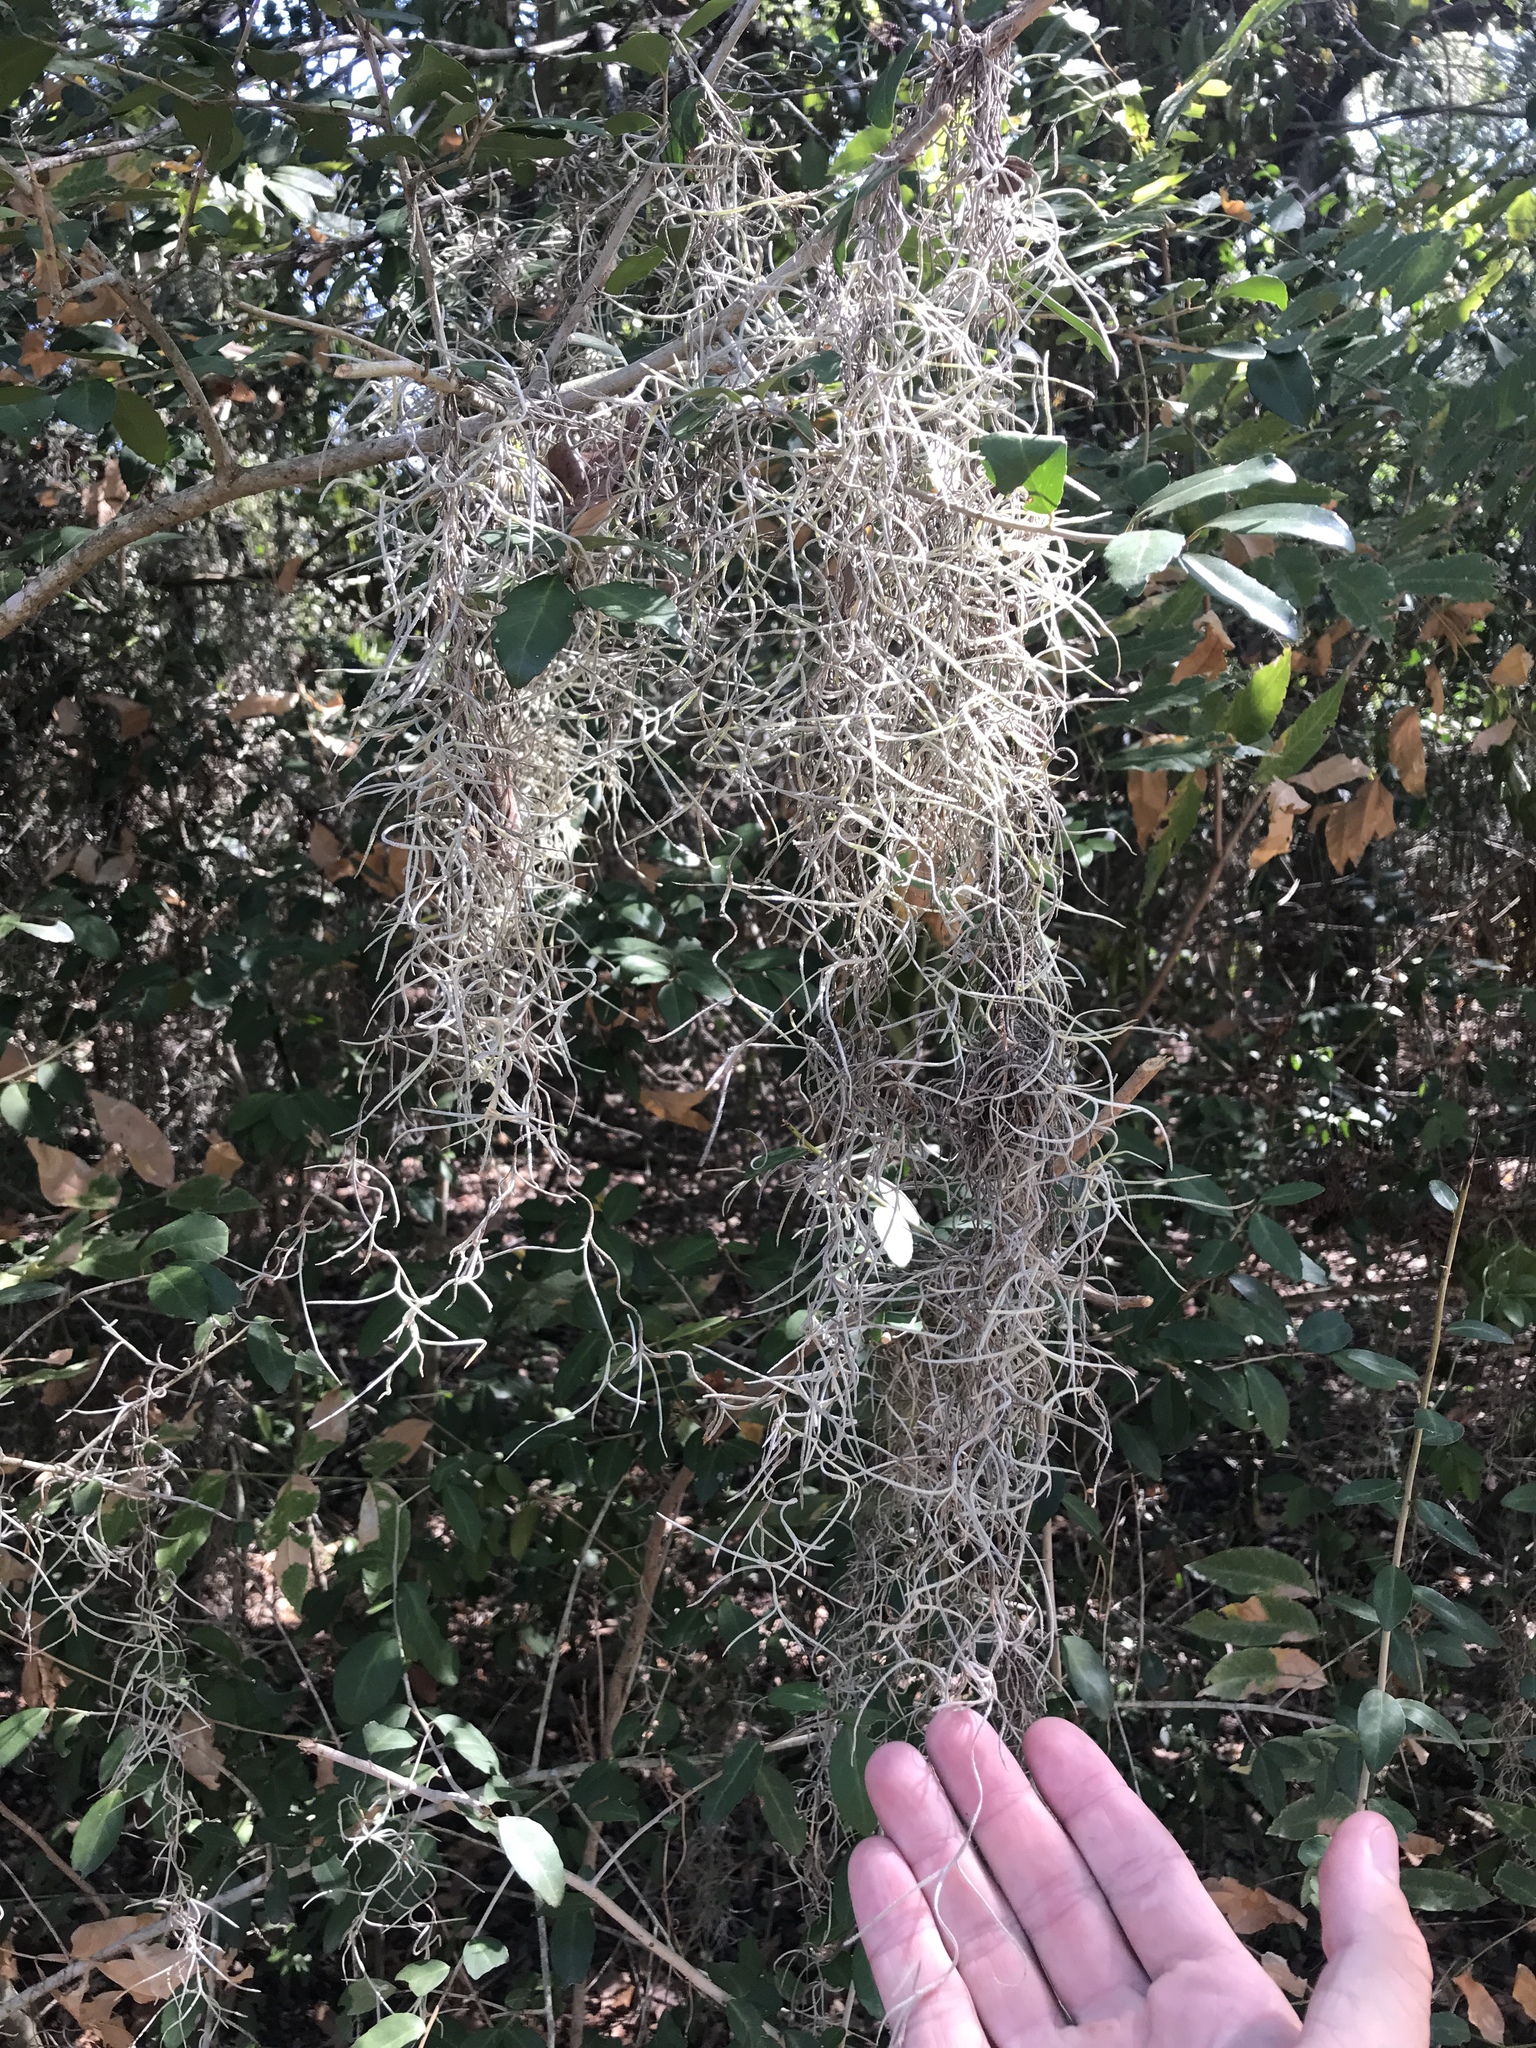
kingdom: Plantae
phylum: Tracheophyta
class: Liliopsida
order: Poales
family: Bromeliaceae
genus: Tillandsia
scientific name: Tillandsia usneoides
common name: Spanish moss
